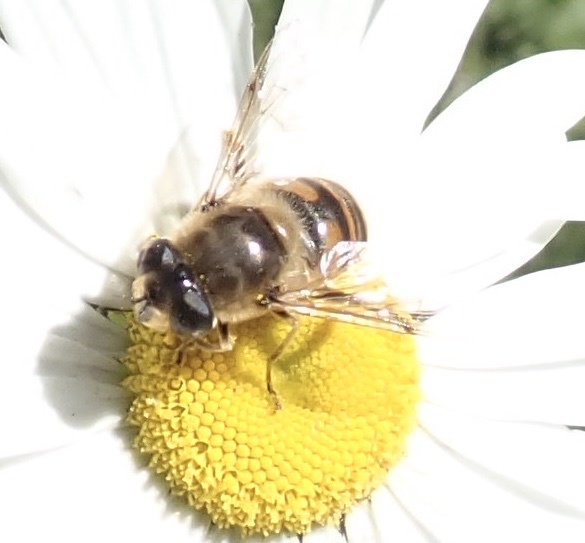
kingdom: Animalia
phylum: Arthropoda
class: Insecta
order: Diptera
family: Syrphidae
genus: Eristalis
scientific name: Eristalis tenax
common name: Drone fly
